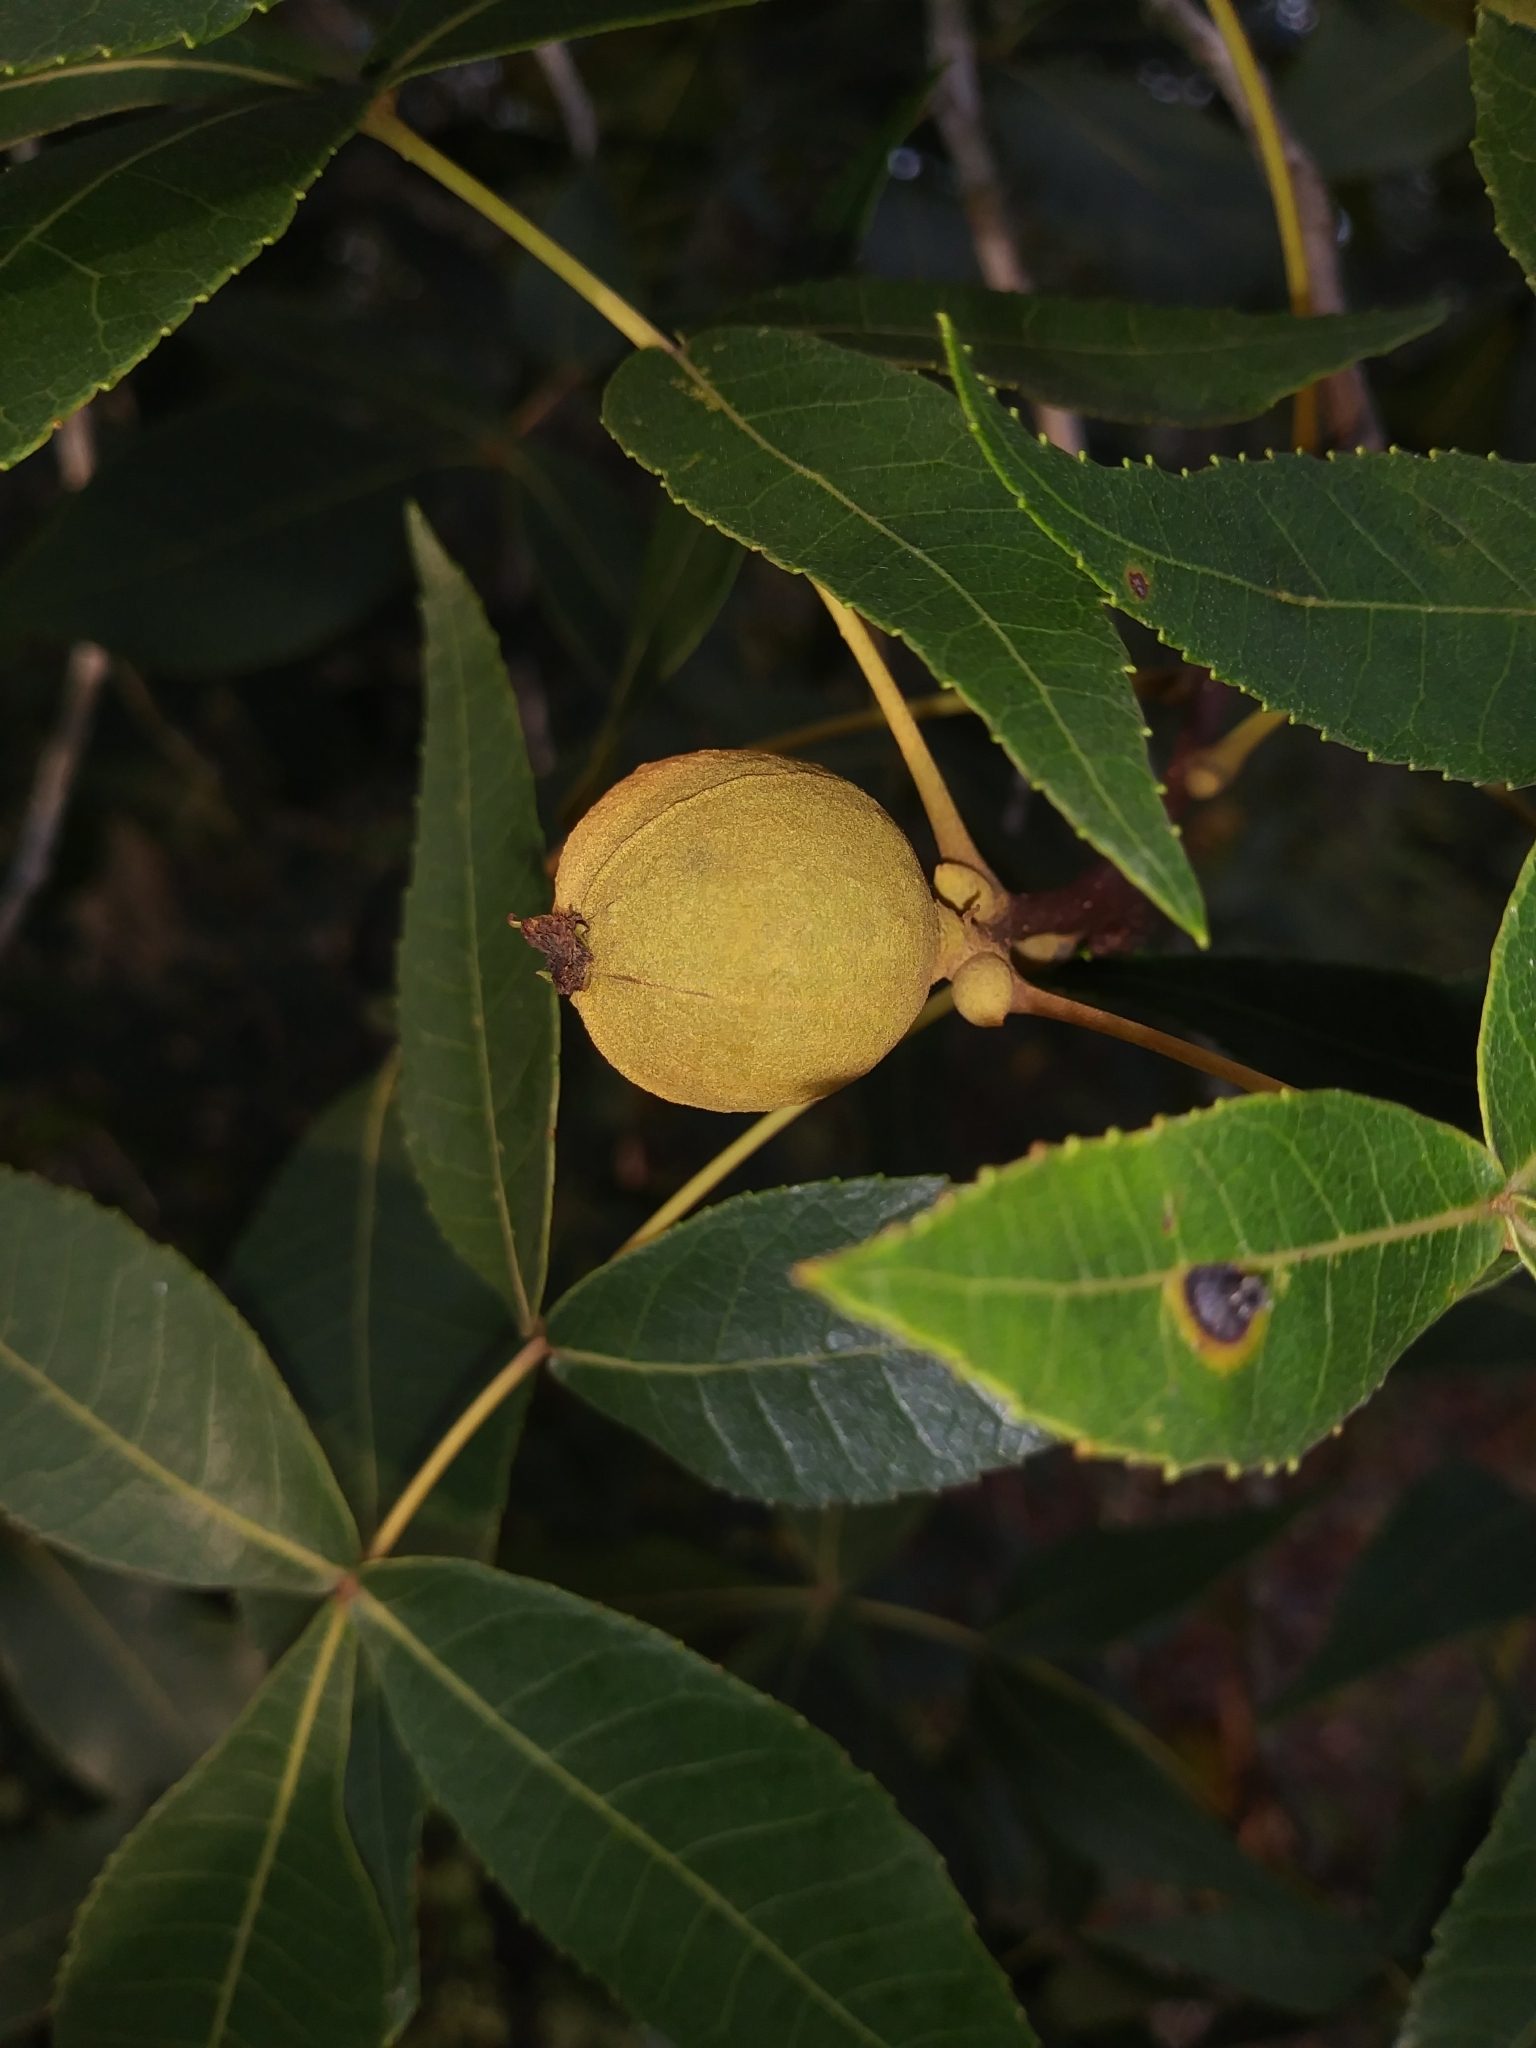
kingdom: Plantae
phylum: Tracheophyta
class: Magnoliopsida
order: Fagales
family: Juglandaceae
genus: Carya
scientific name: Carya floridana
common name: Scrub hickory
